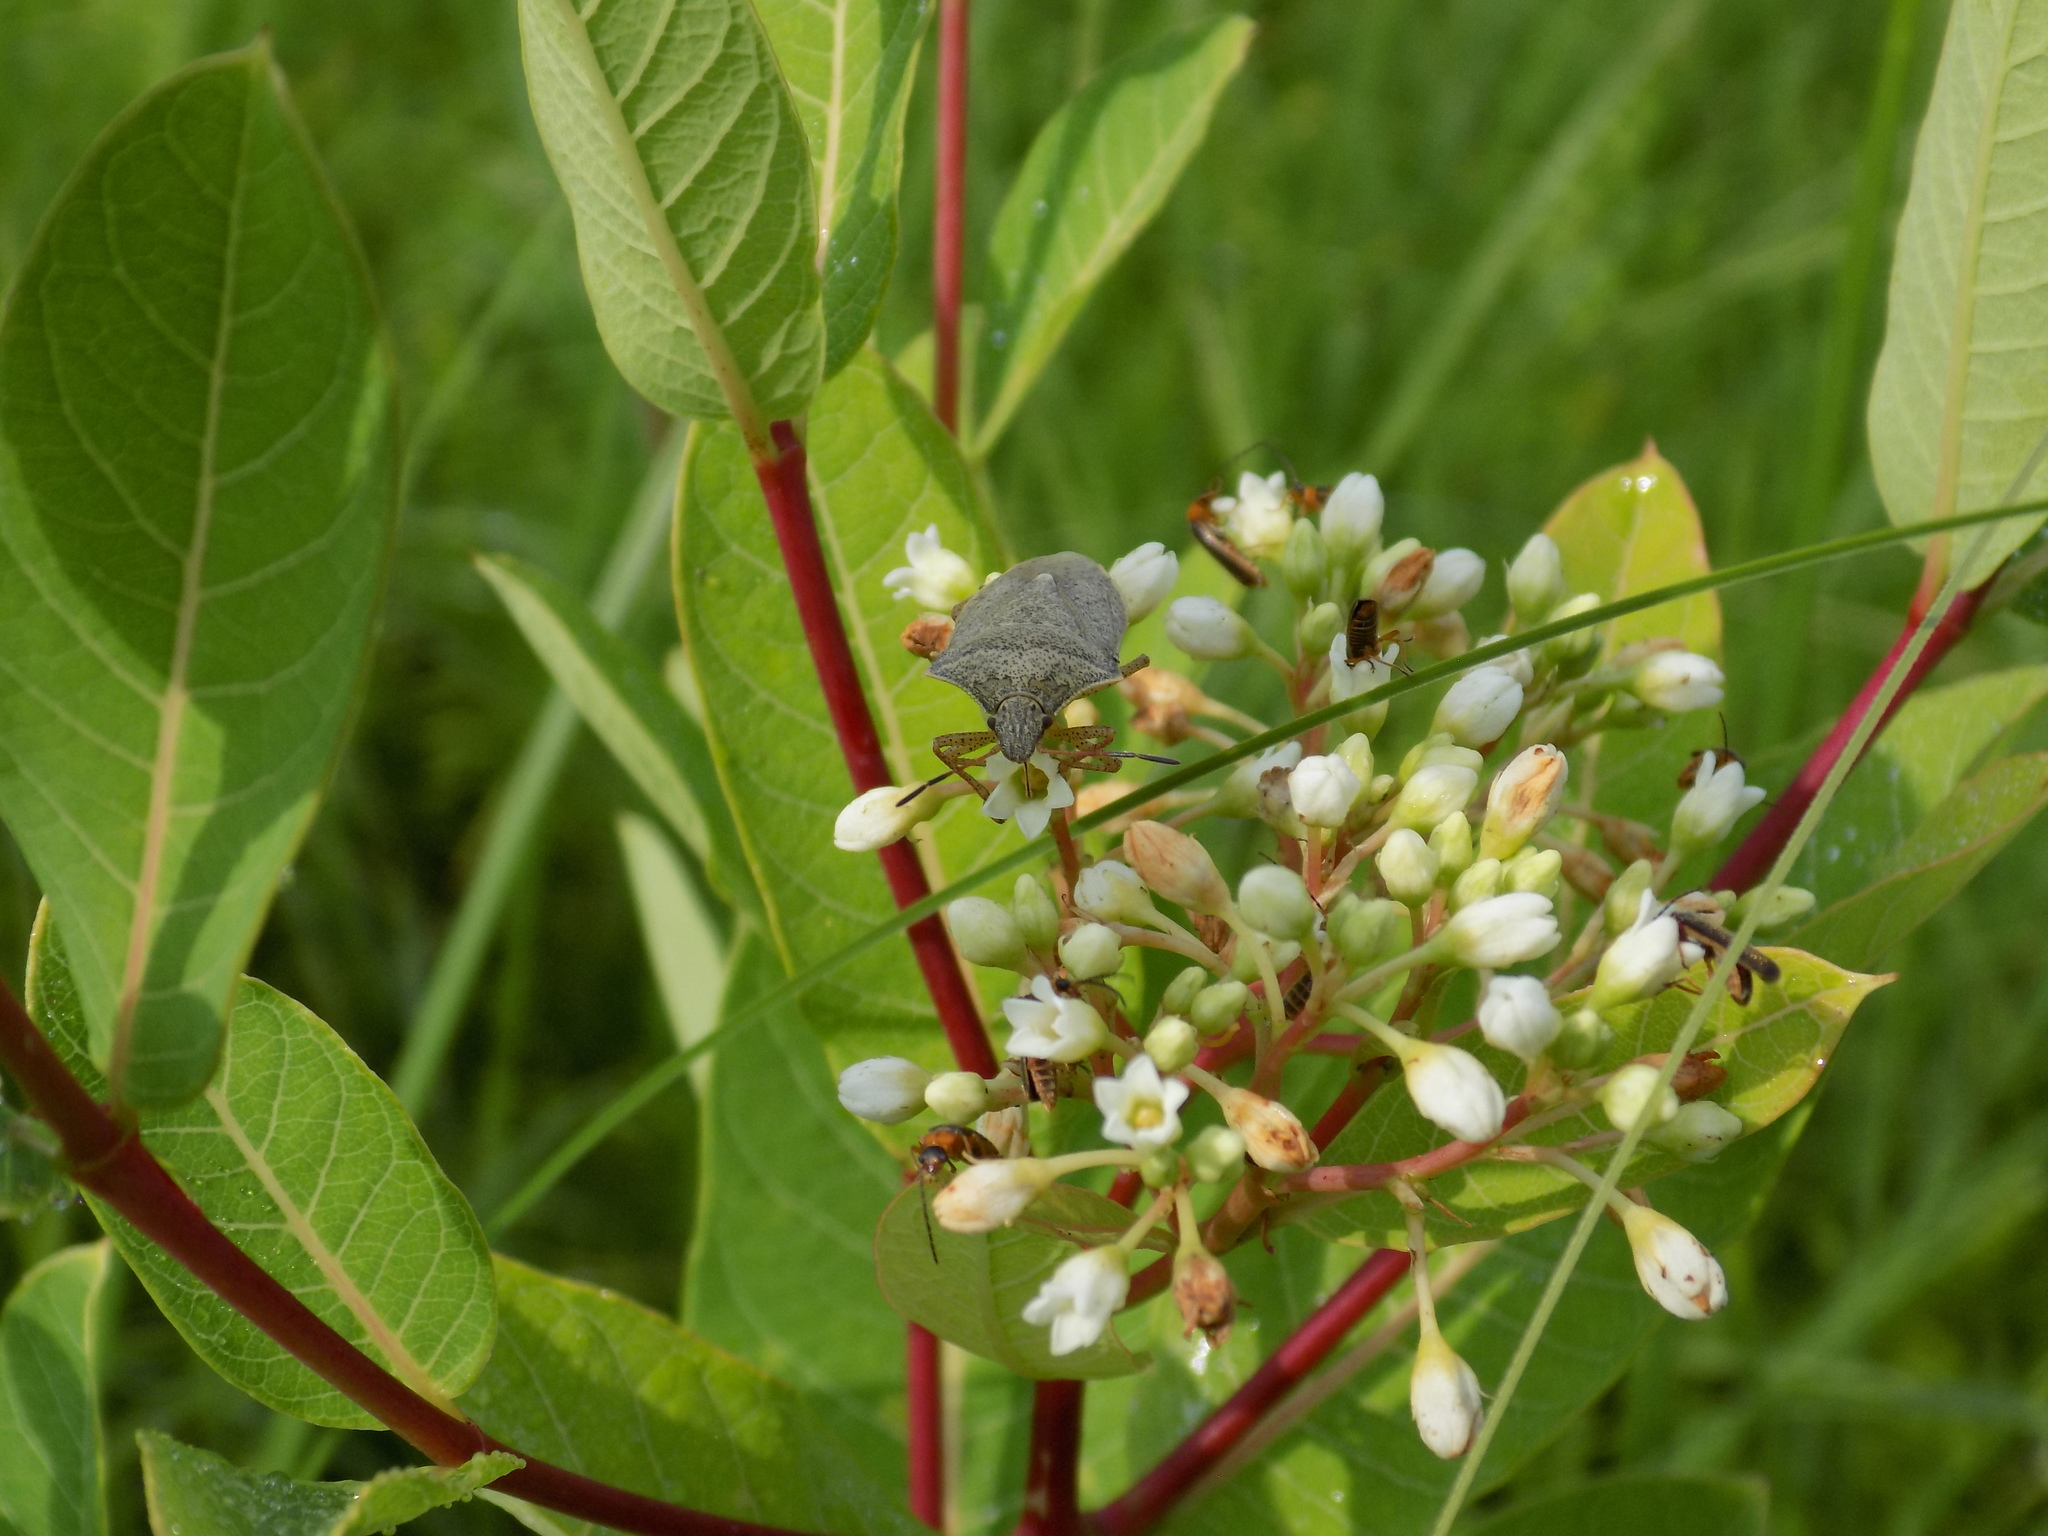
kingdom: Plantae
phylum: Tracheophyta
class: Magnoliopsida
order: Gentianales
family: Apocynaceae
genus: Apocynum
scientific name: Apocynum cannabinum
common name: Hemp dogbane
